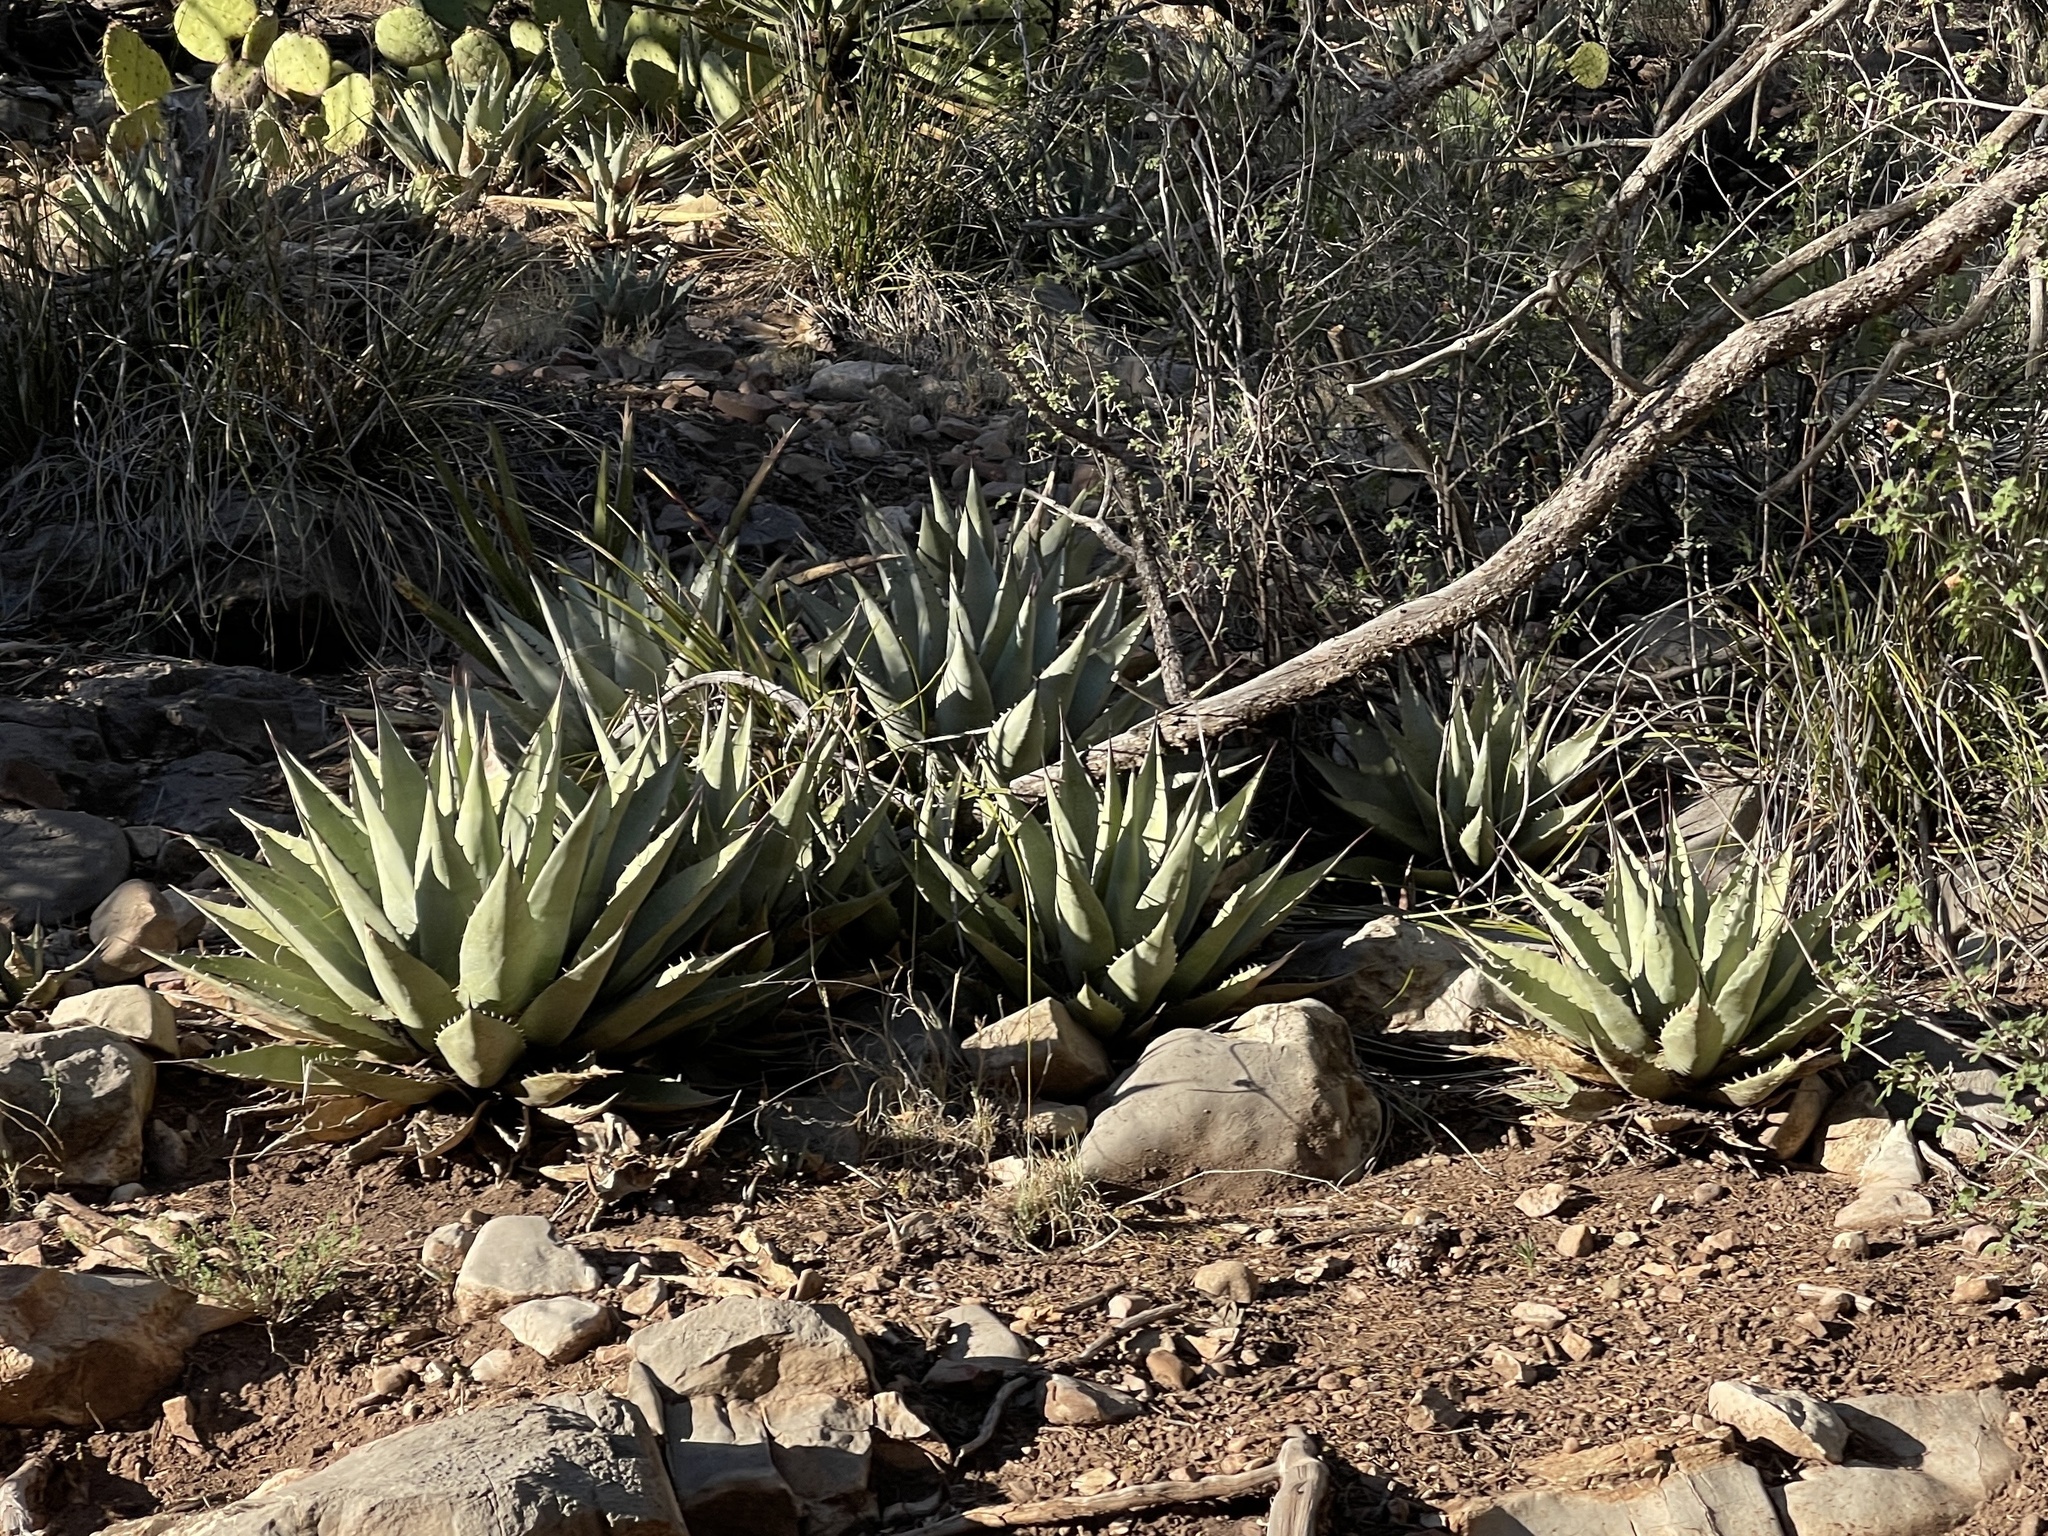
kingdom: Plantae
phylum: Tracheophyta
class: Liliopsida
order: Asparagales
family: Asparagaceae
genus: Agave
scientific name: Agave parryi
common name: Parry's agave
